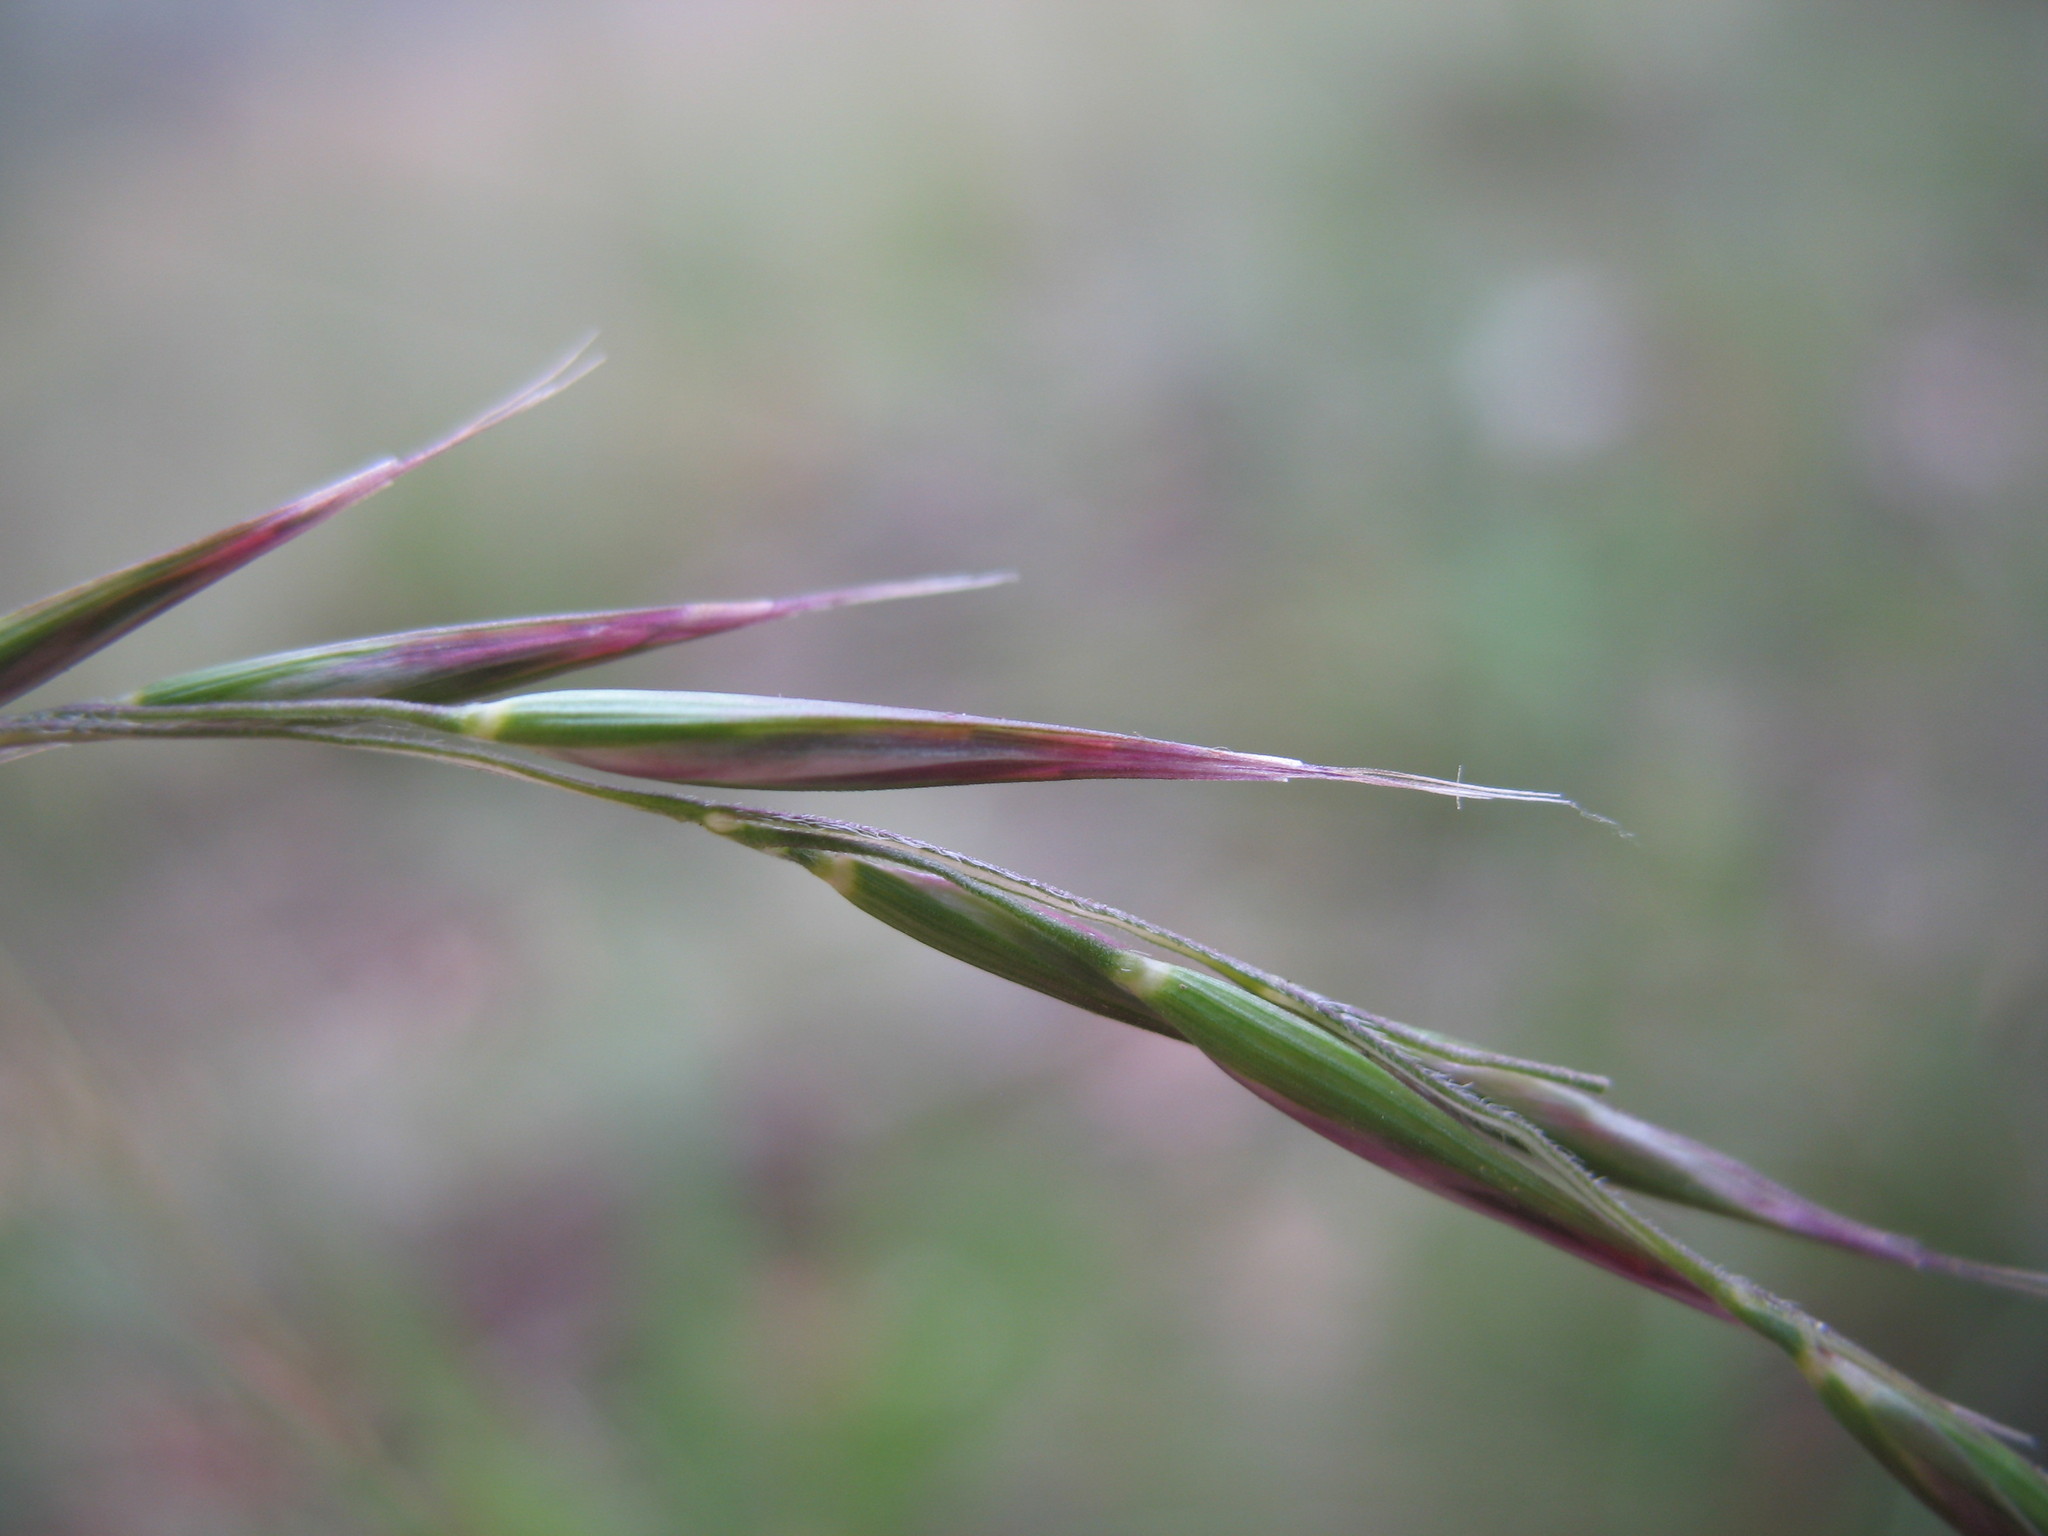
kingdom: Plantae
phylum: Tracheophyta
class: Liliopsida
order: Poales
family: Poaceae
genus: Rytidosperma
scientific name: Rytidosperma penicillatum
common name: Hairy wallaby grass
